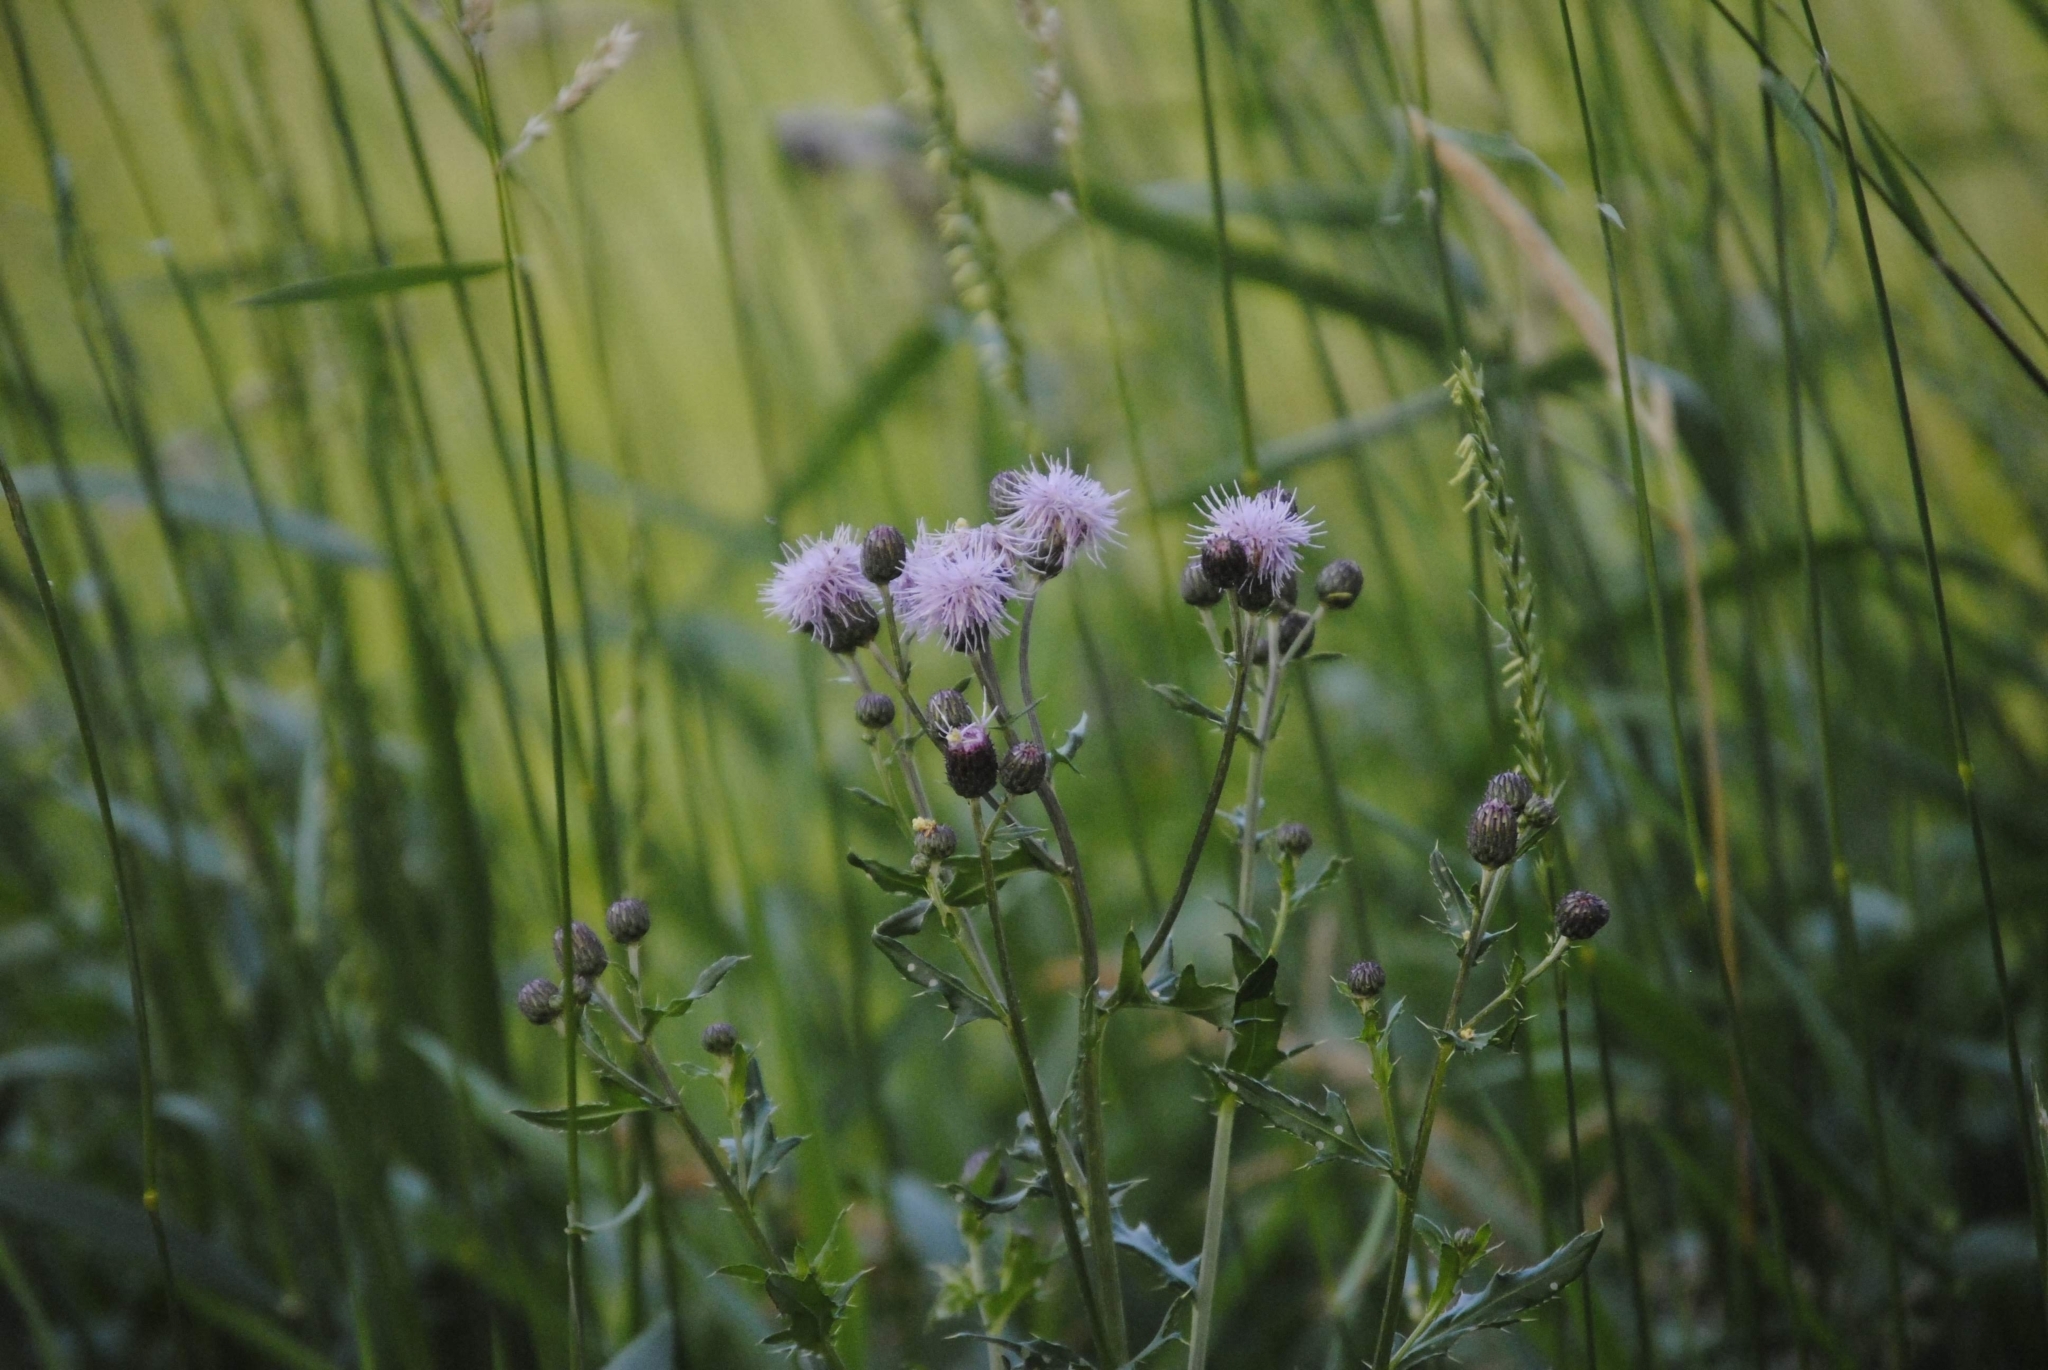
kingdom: Plantae
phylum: Tracheophyta
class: Magnoliopsida
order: Asterales
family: Asteraceae
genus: Cirsium
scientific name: Cirsium arvense
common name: Creeping thistle
